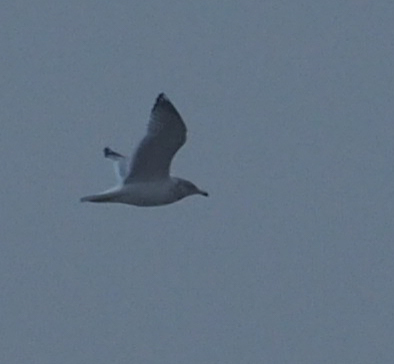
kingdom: Animalia
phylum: Chordata
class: Aves
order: Charadriiformes
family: Laridae
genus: Larus
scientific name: Larus delawarensis
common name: Ring-billed gull
